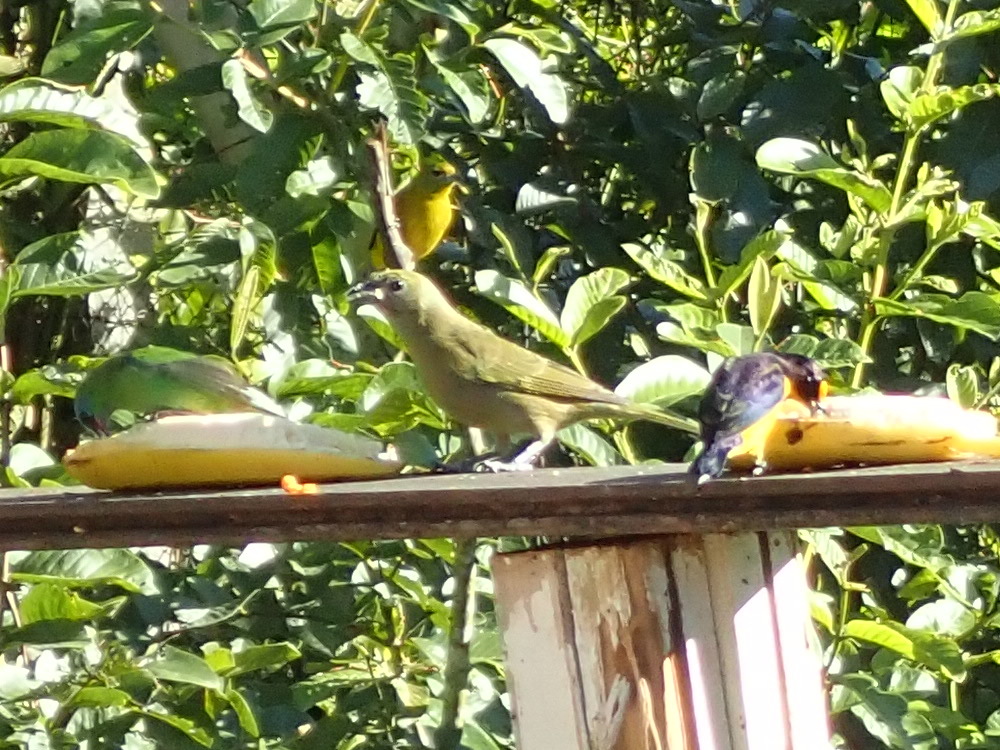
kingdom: Animalia
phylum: Chordata
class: Aves
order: Passeriformes
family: Thraupidae
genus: Thraupis
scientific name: Thraupis palmarum
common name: Palm tanager
